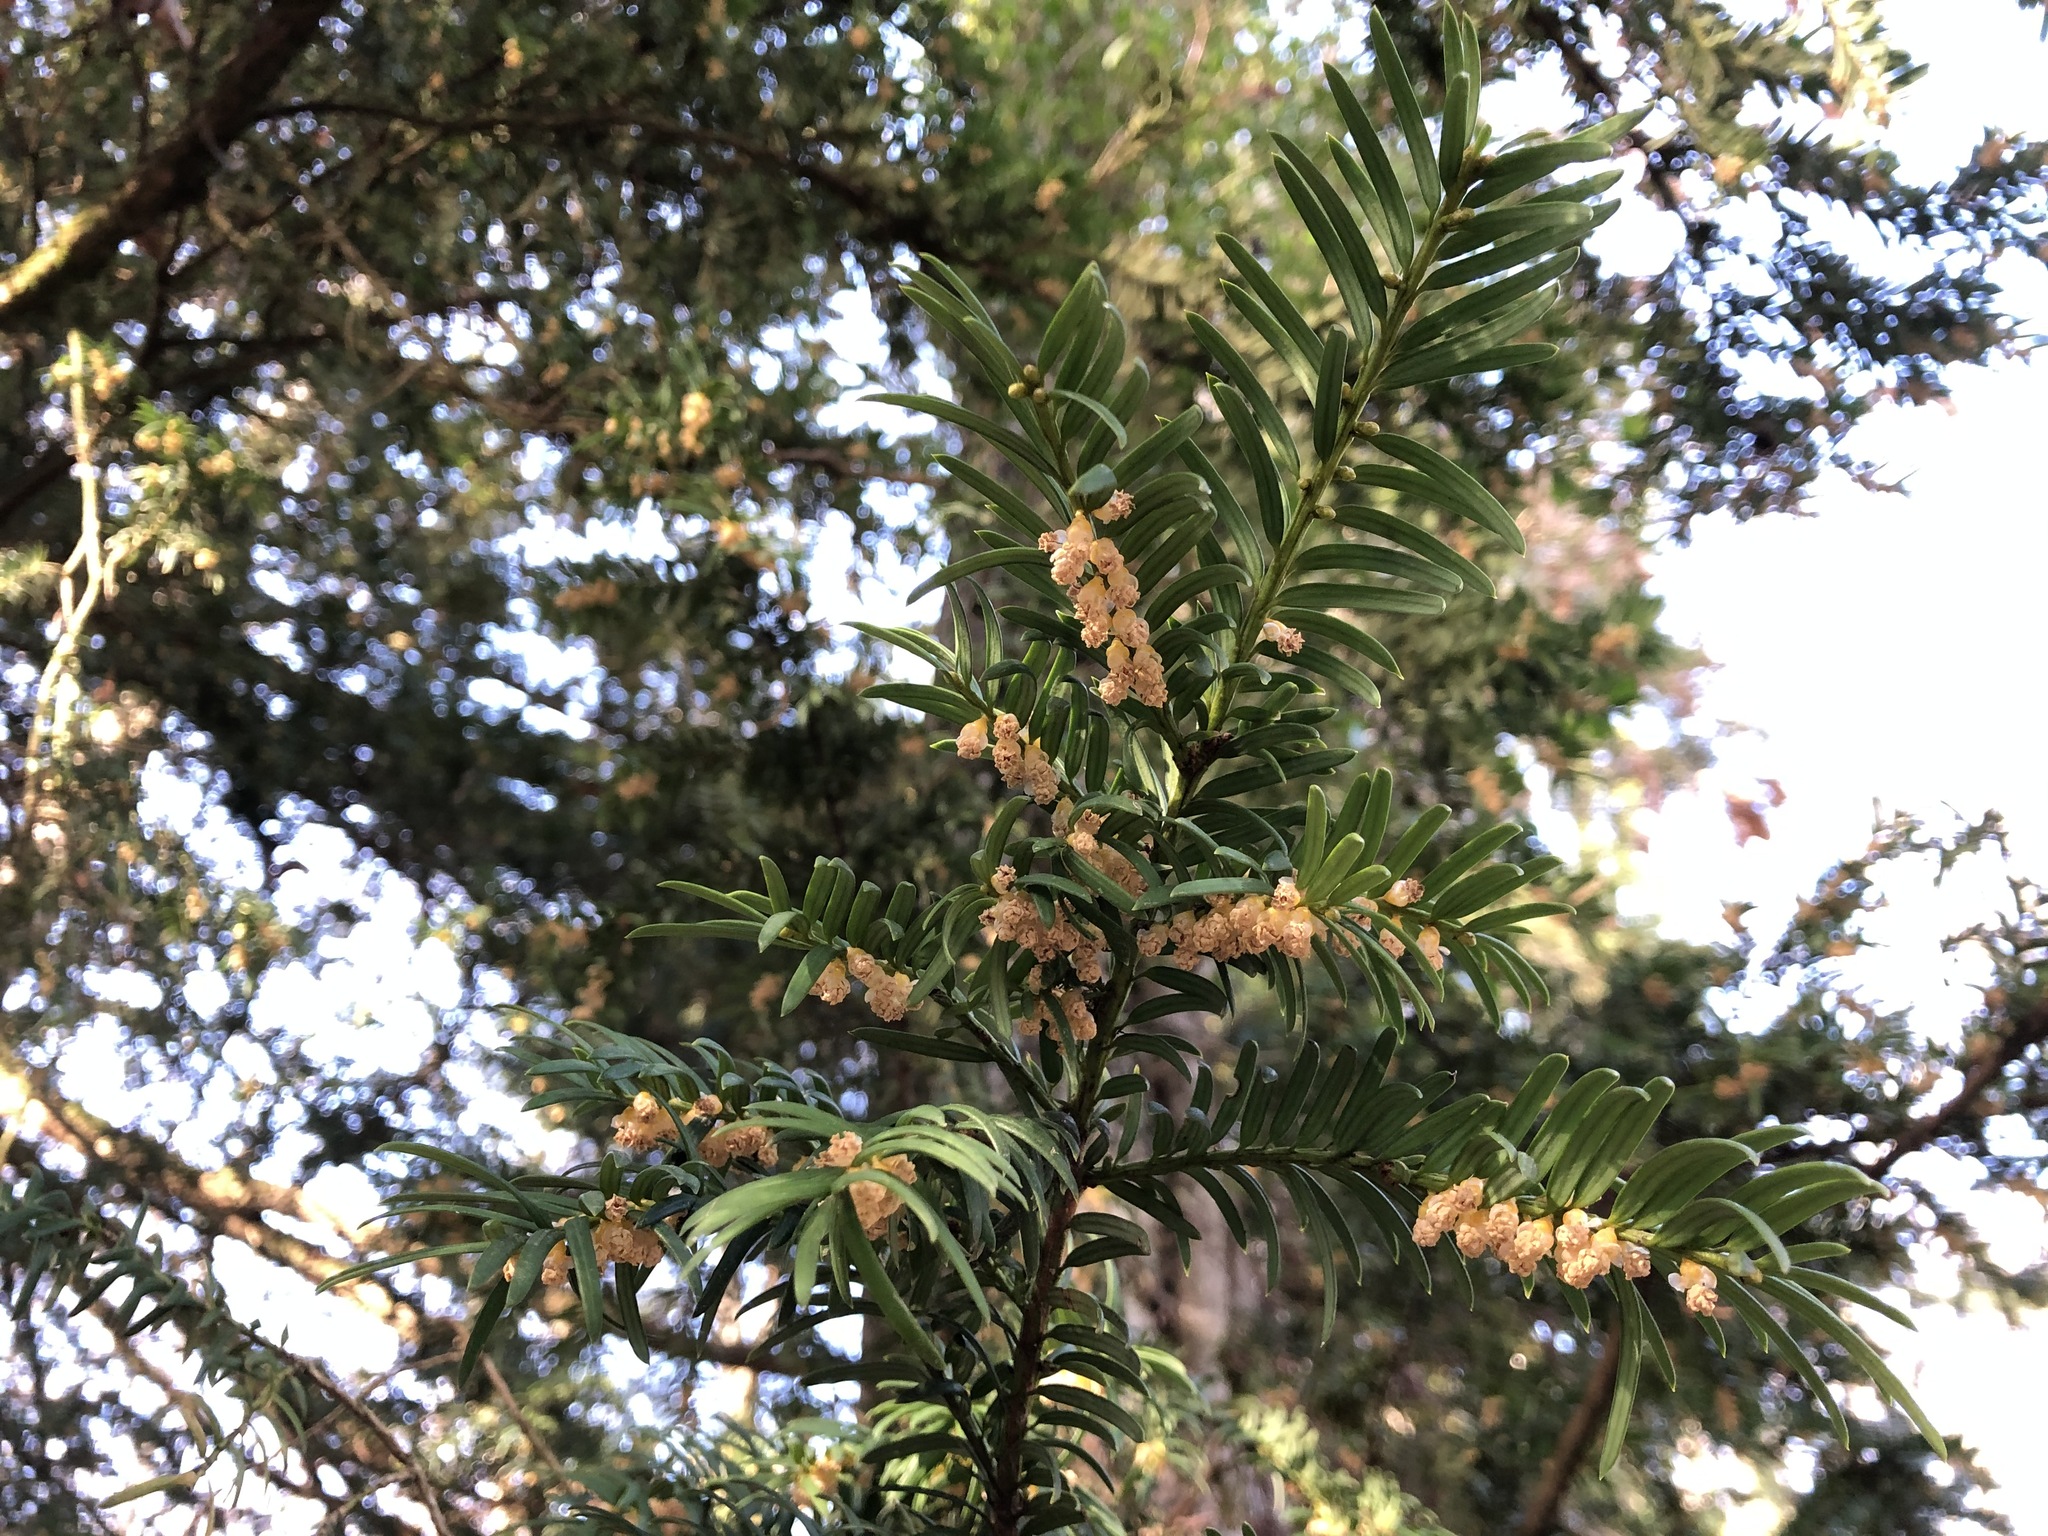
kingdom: Plantae
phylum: Tracheophyta
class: Pinopsida
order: Pinales
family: Taxaceae
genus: Taxus
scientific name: Taxus baccata
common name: Yew
